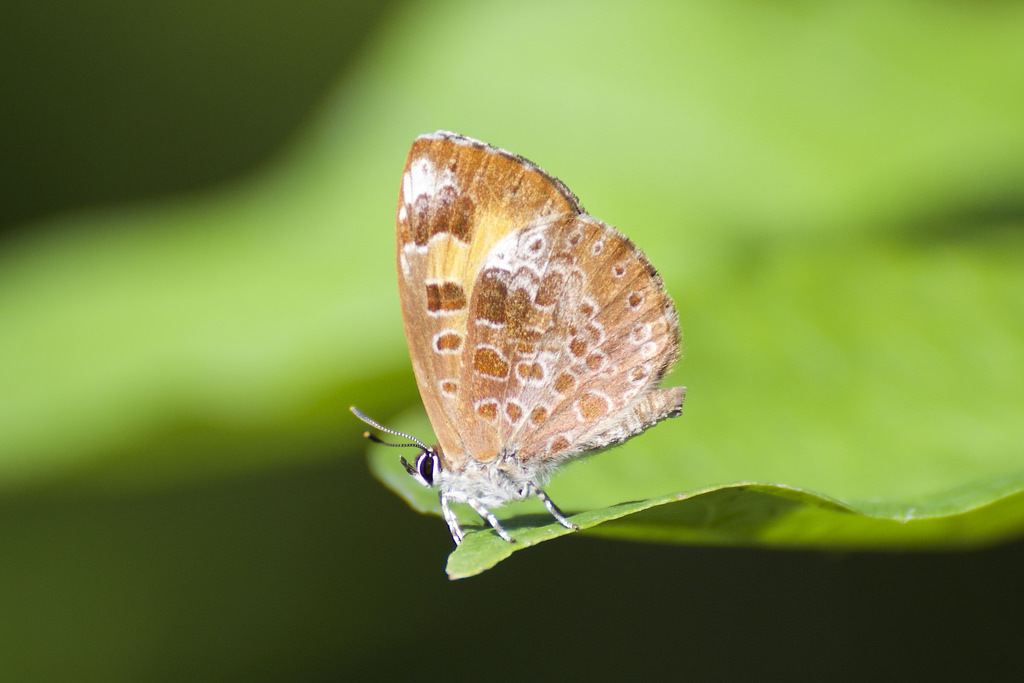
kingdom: Animalia
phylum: Arthropoda
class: Insecta
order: Lepidoptera
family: Lycaenidae
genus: Feniseca
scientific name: Feniseca tarquinius
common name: Harvester
